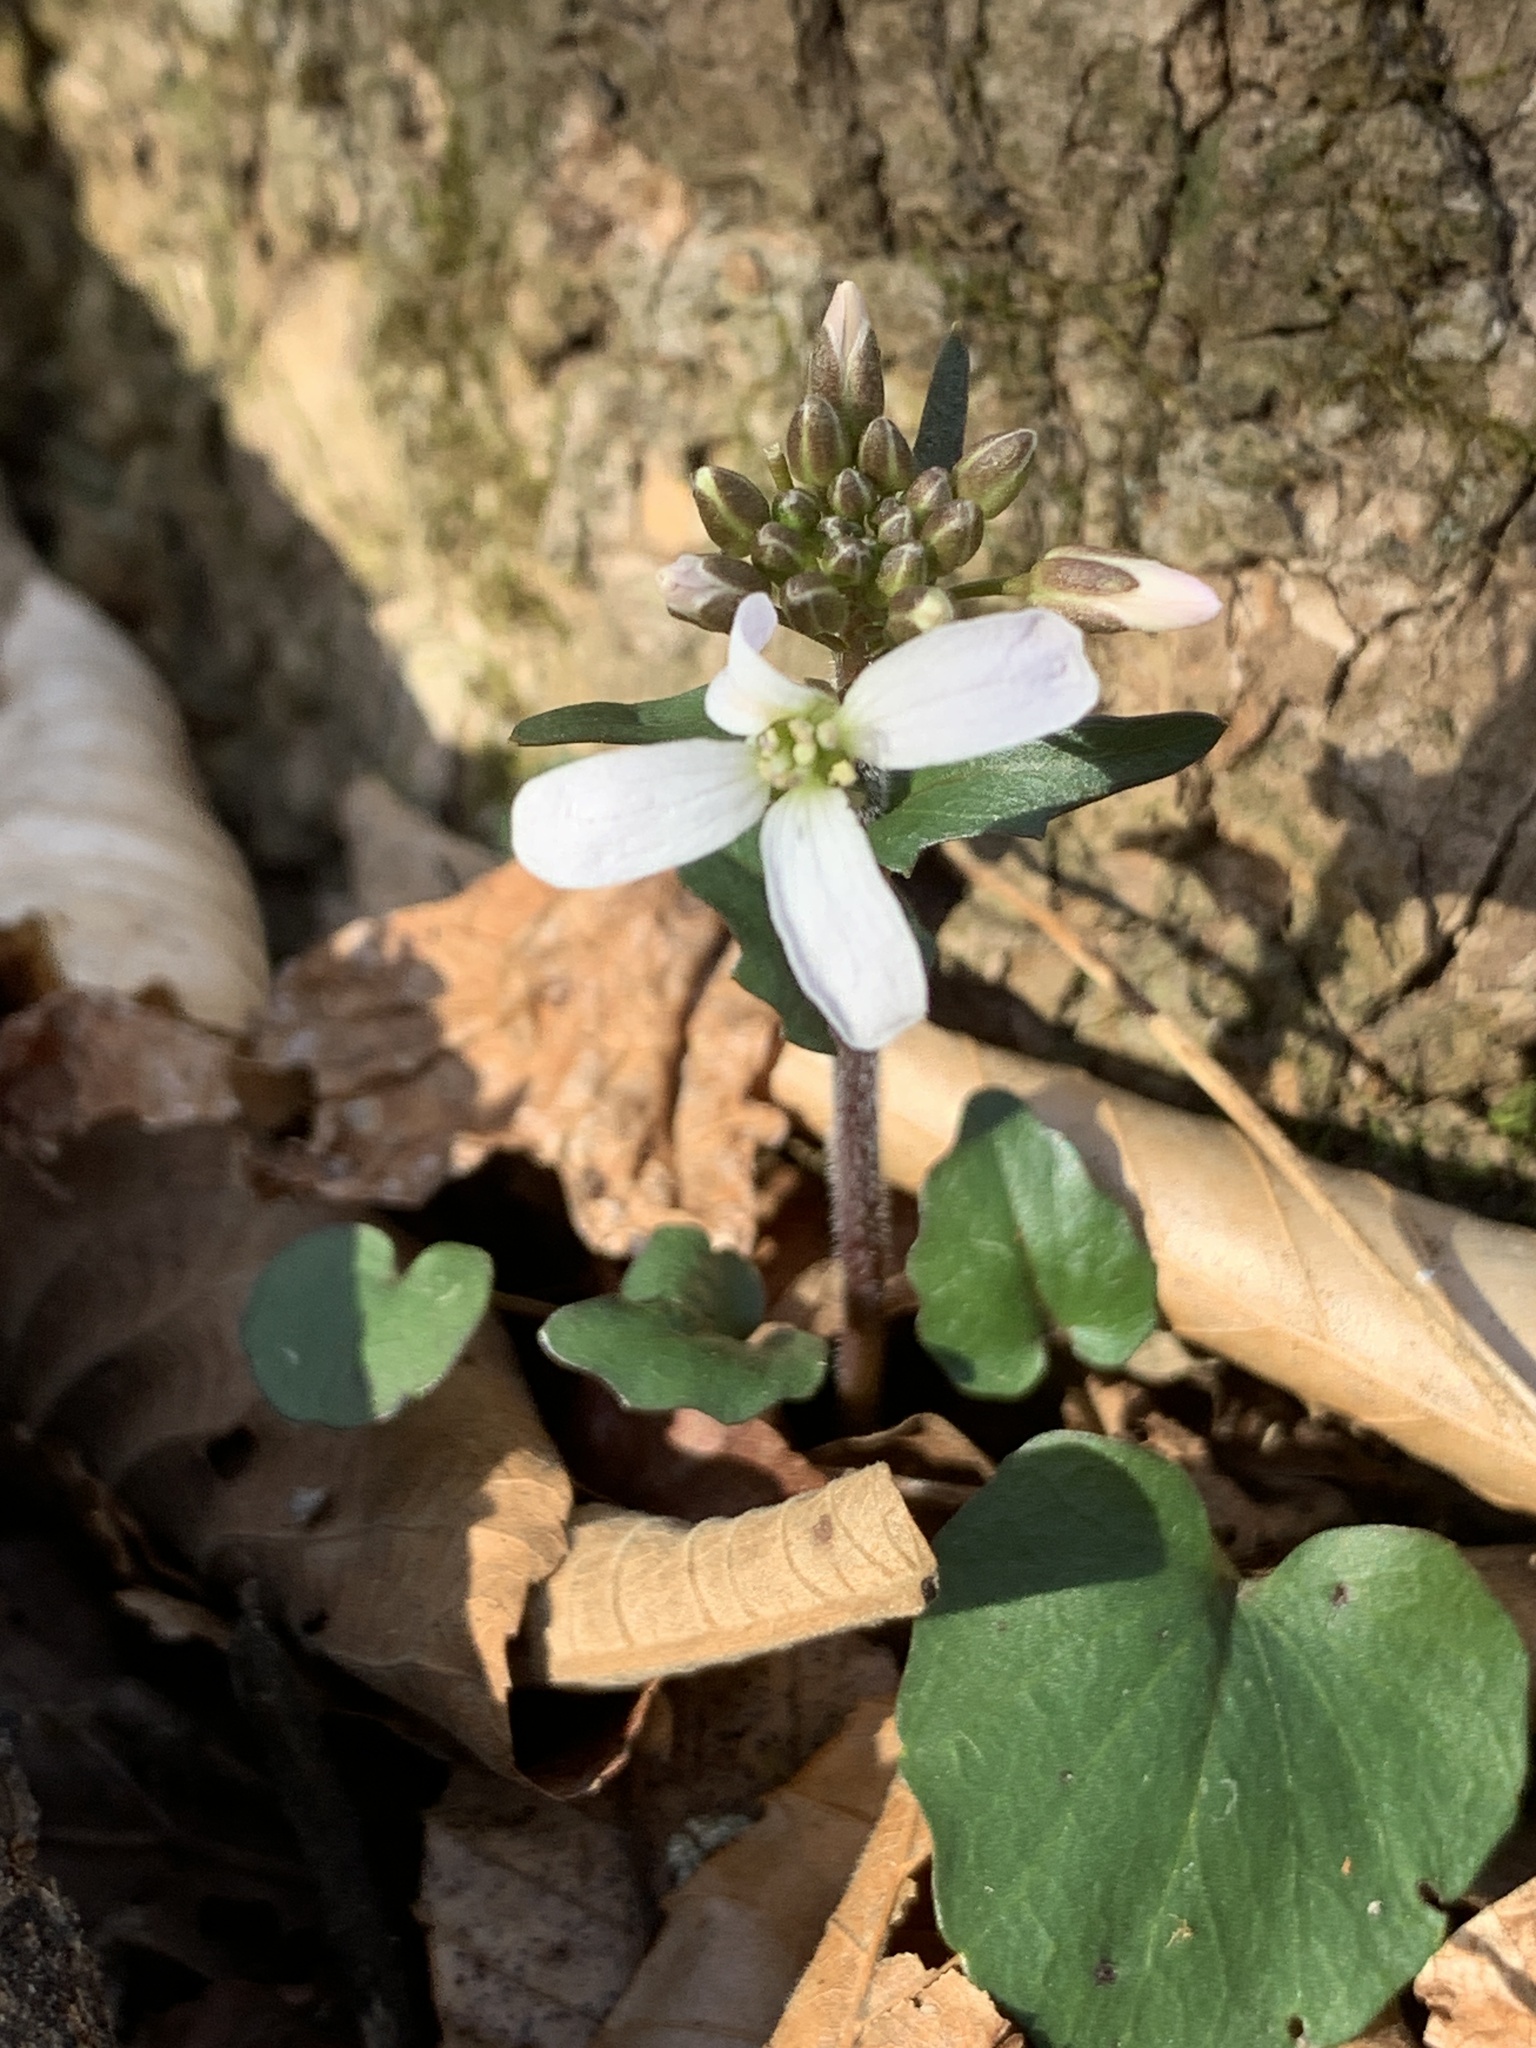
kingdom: Plantae
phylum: Tracheophyta
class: Magnoliopsida
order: Brassicales
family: Brassicaceae
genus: Cardamine
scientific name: Cardamine douglassii
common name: Purple cress
